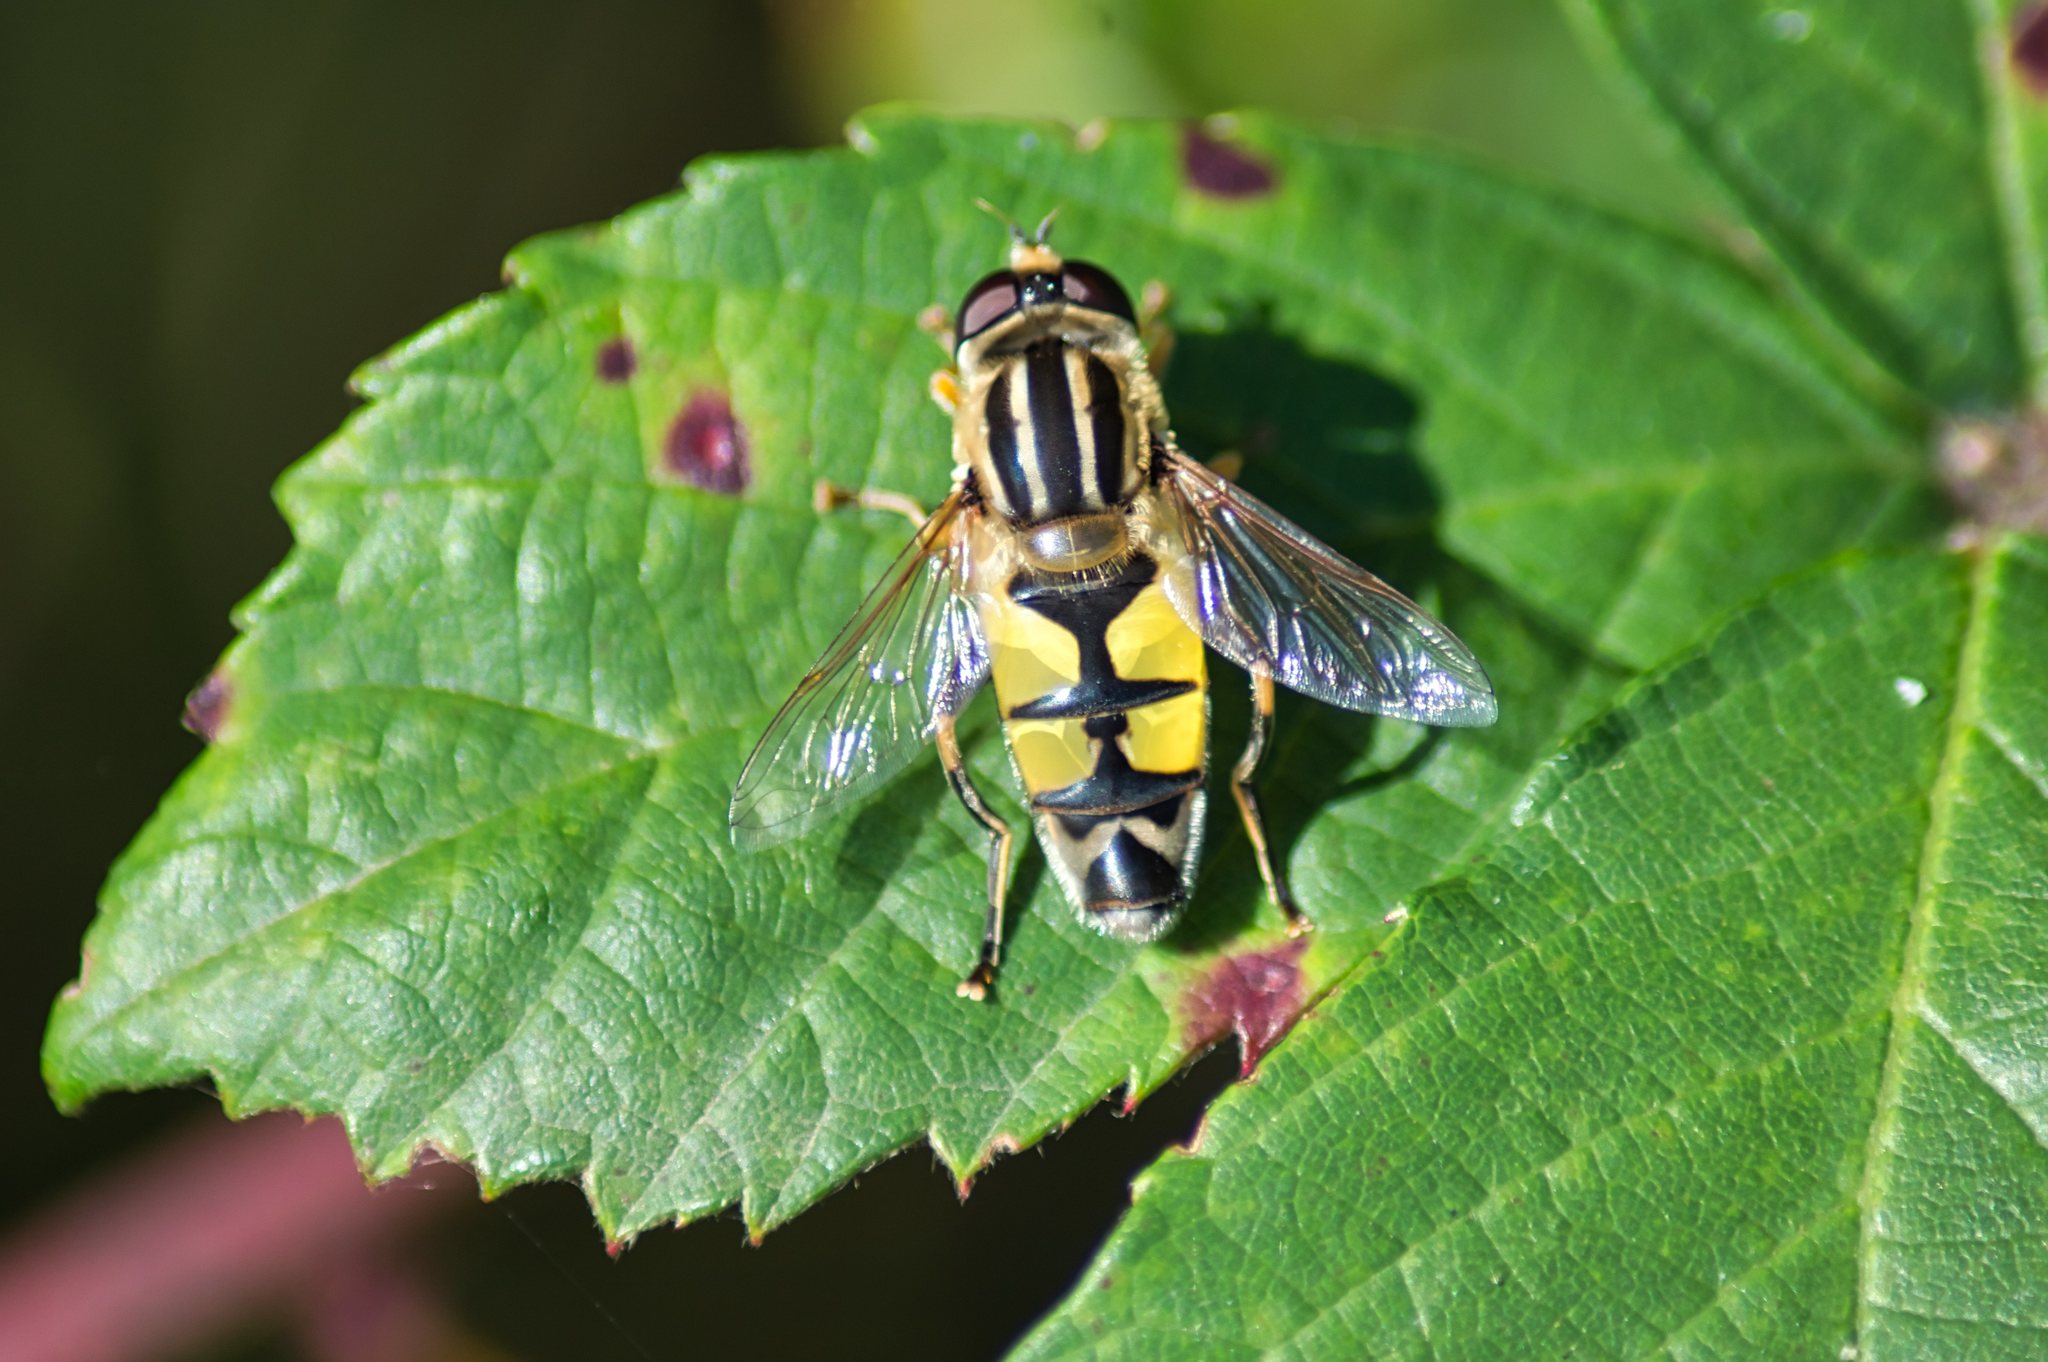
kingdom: Animalia
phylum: Arthropoda
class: Insecta
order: Diptera
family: Syrphidae
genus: Helophilus
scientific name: Helophilus trivittatus
